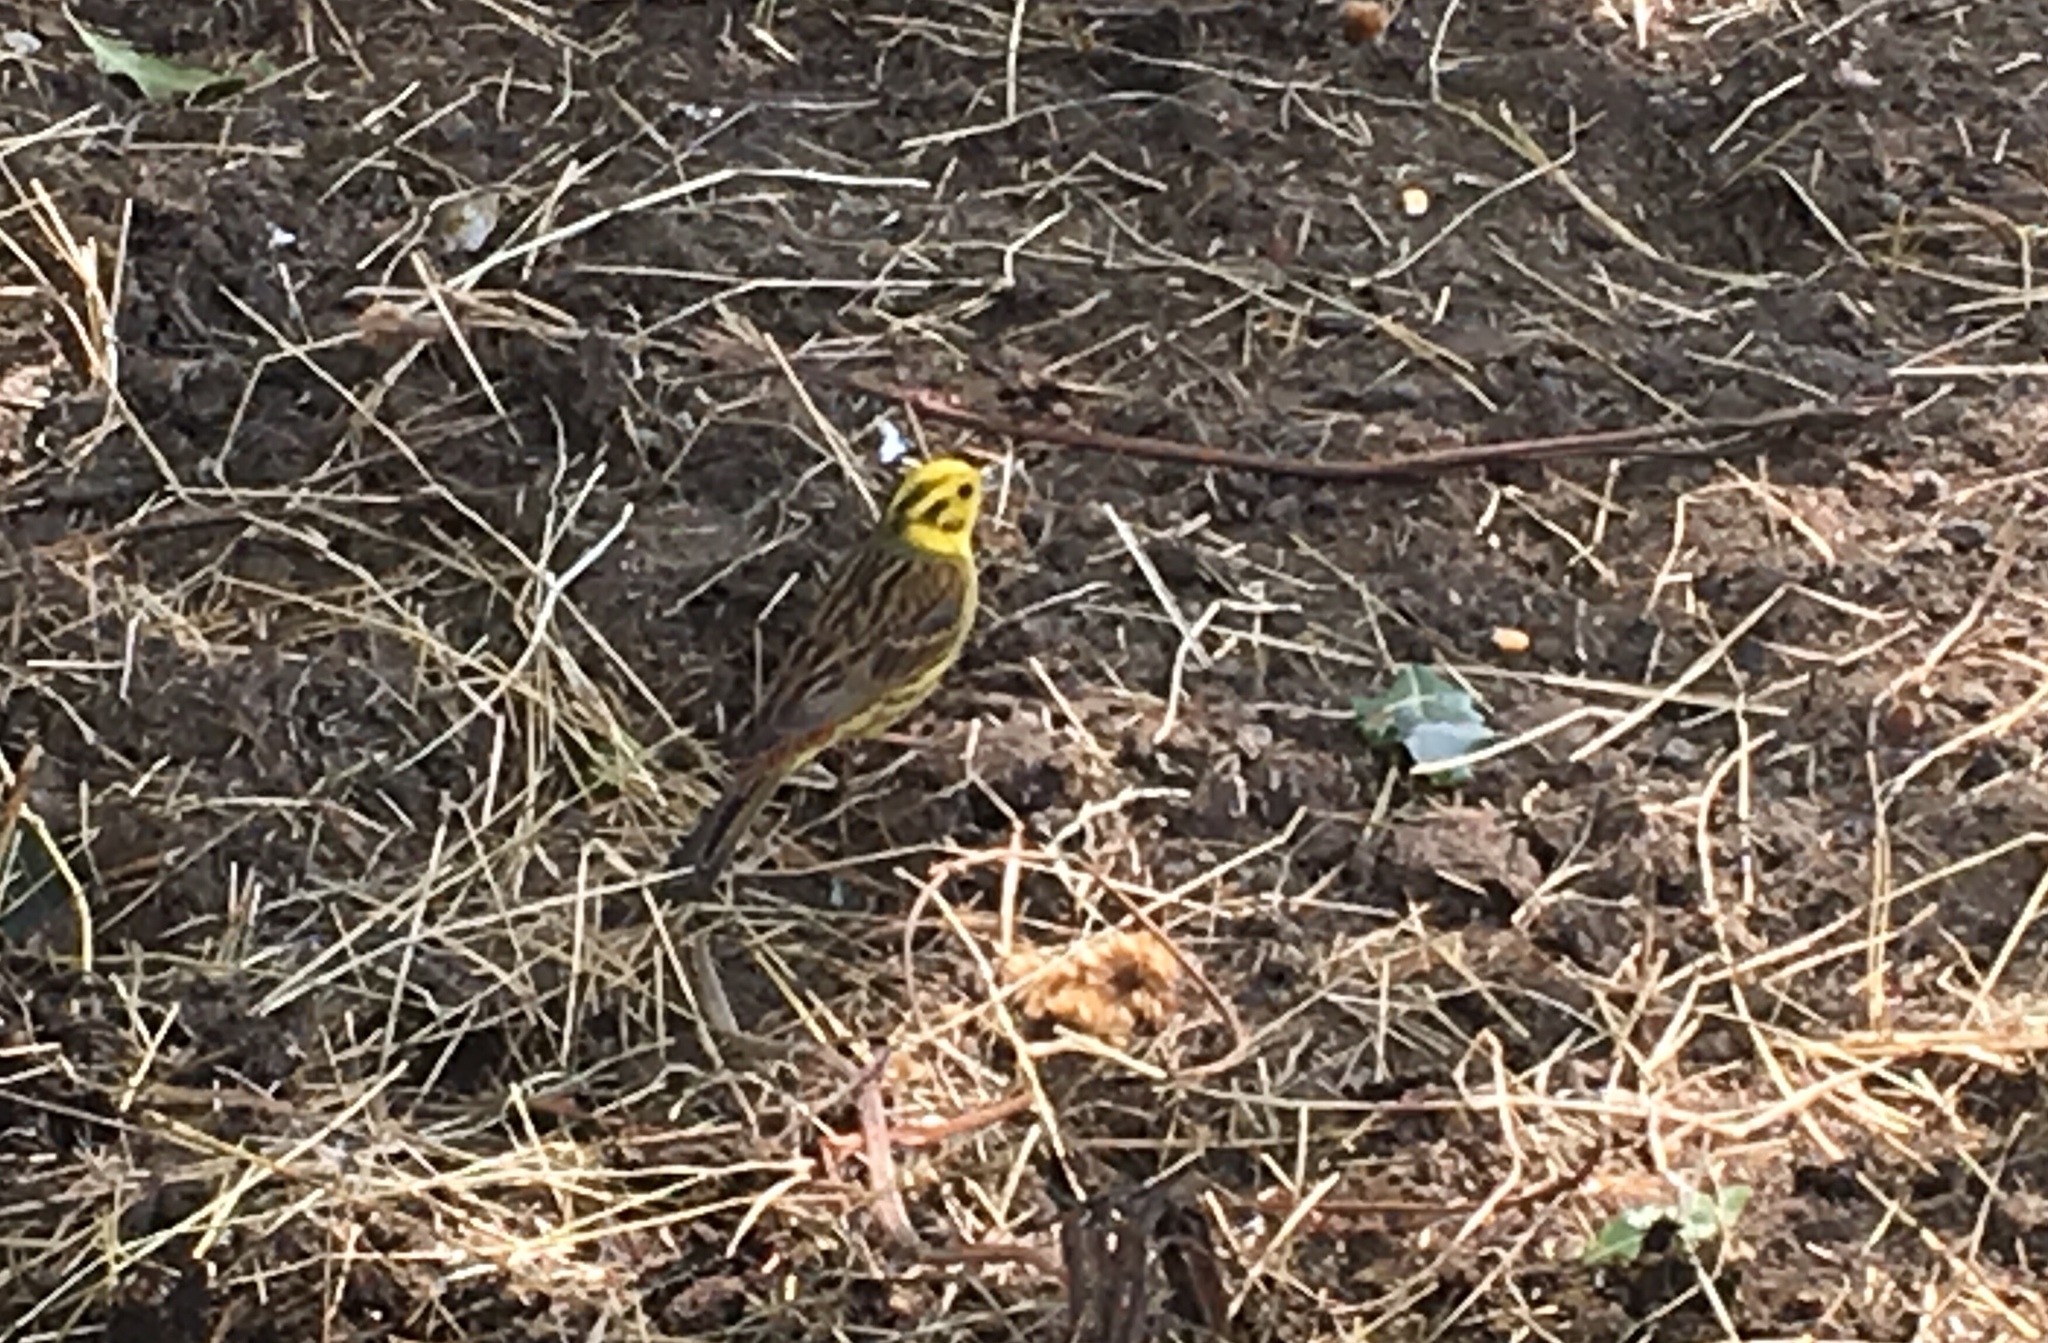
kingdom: Animalia
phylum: Chordata
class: Aves
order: Passeriformes
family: Emberizidae
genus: Emberiza
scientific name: Emberiza citrinella
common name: Yellowhammer
